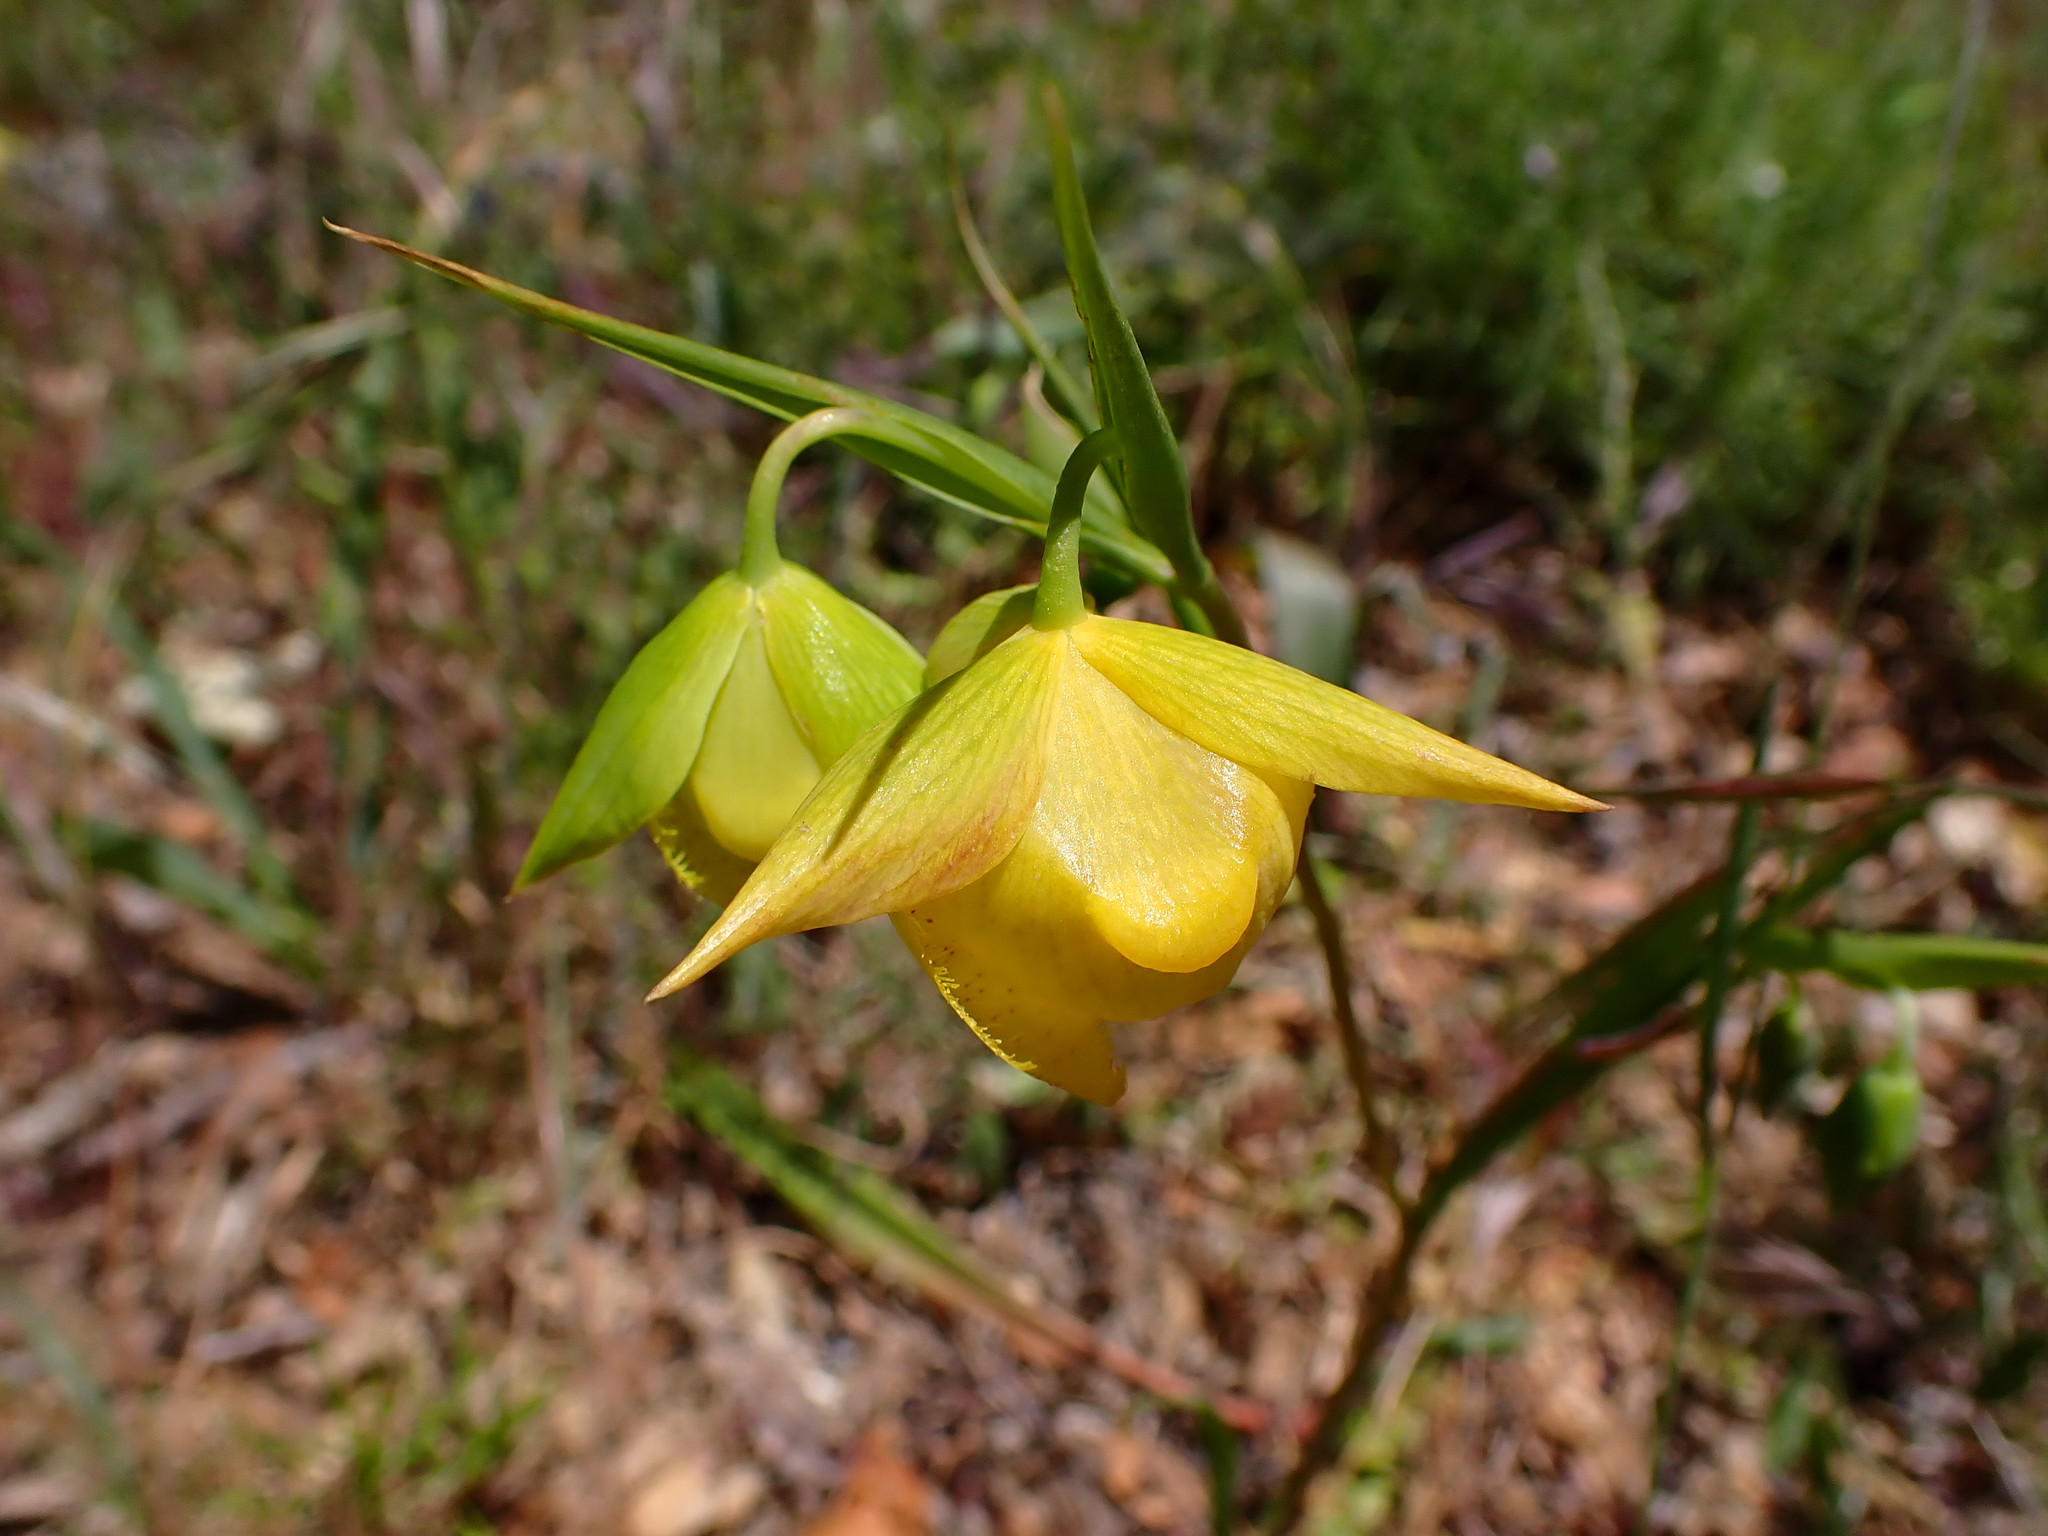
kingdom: Plantae
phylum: Tracheophyta
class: Liliopsida
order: Liliales
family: Liliaceae
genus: Calochortus
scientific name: Calochortus pulchellus
